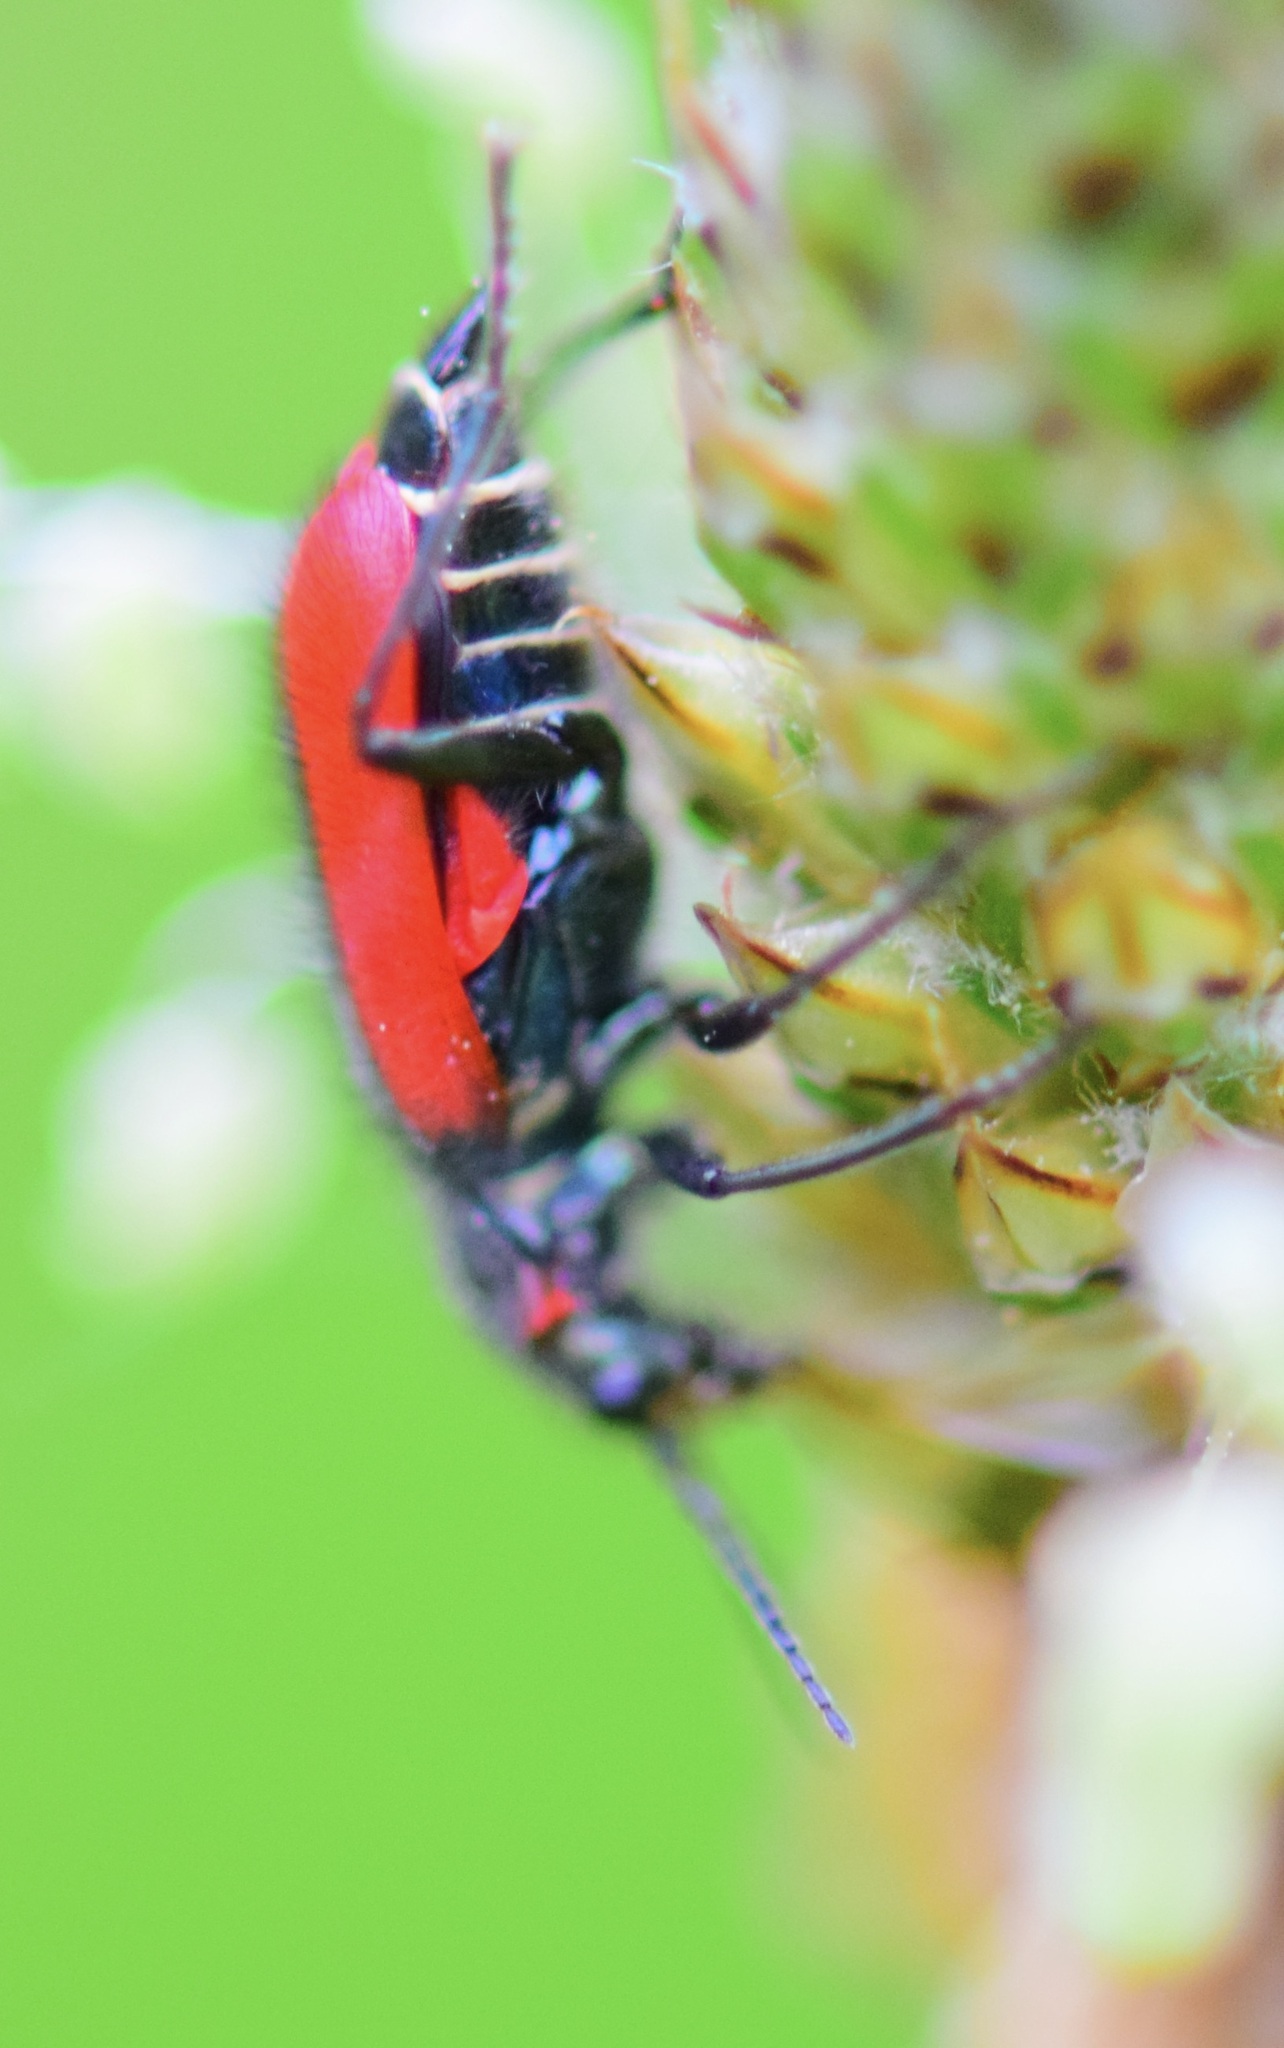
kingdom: Animalia
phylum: Arthropoda
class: Insecta
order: Coleoptera
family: Melyridae
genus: Malachius
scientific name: Malachius aeneus
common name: Scarlet malachite beetle
